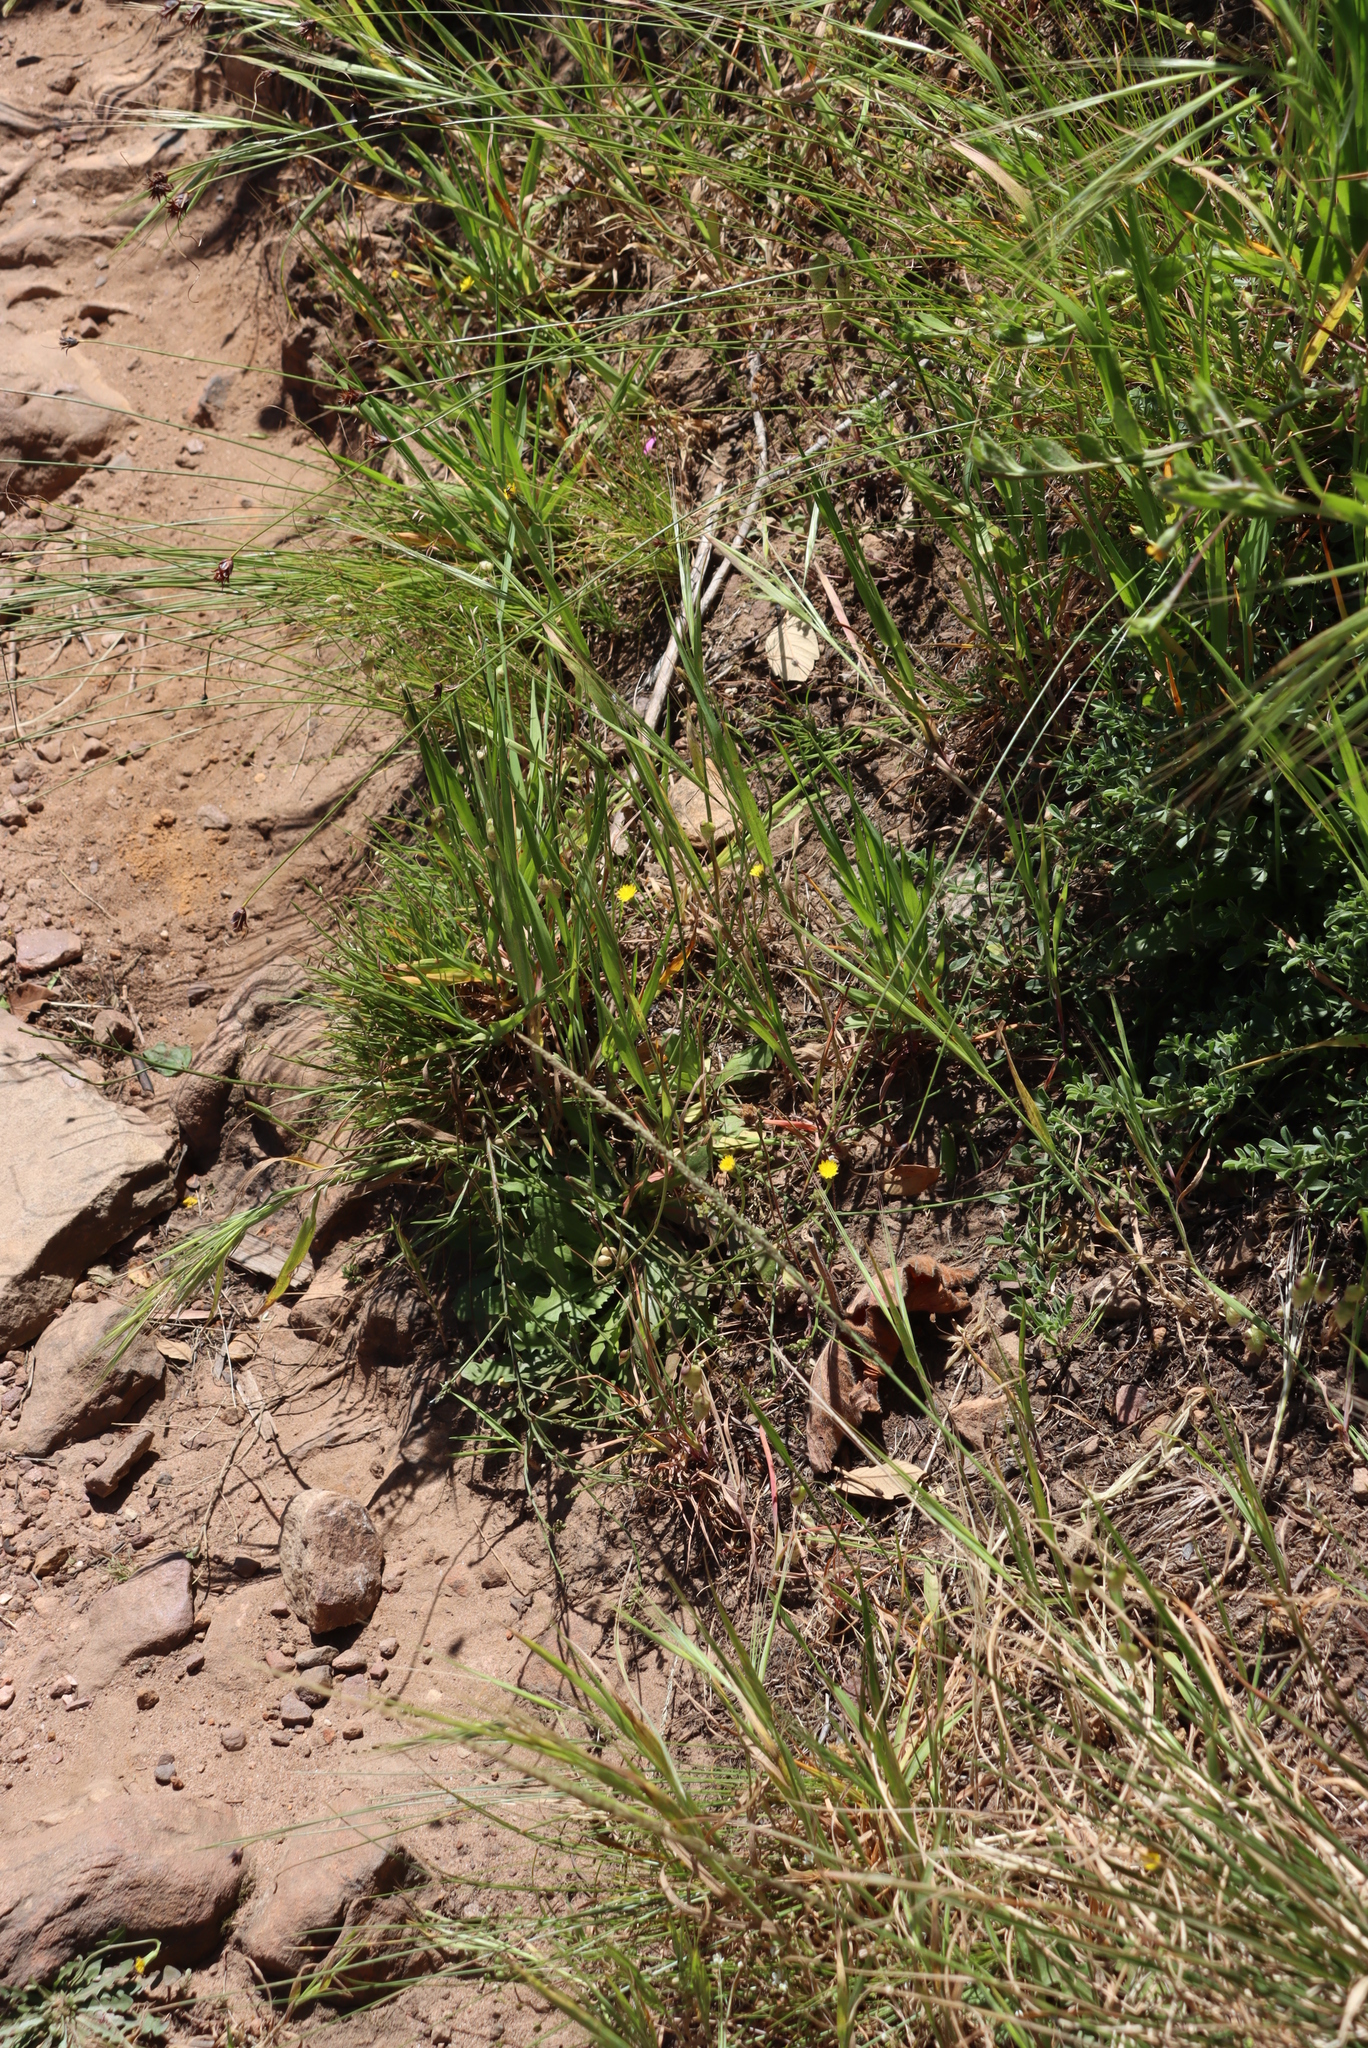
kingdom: Plantae
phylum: Tracheophyta
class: Magnoliopsida
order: Asterales
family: Asteraceae
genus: Hypochaeris
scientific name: Hypochaeris glabra
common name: Smooth catsear
